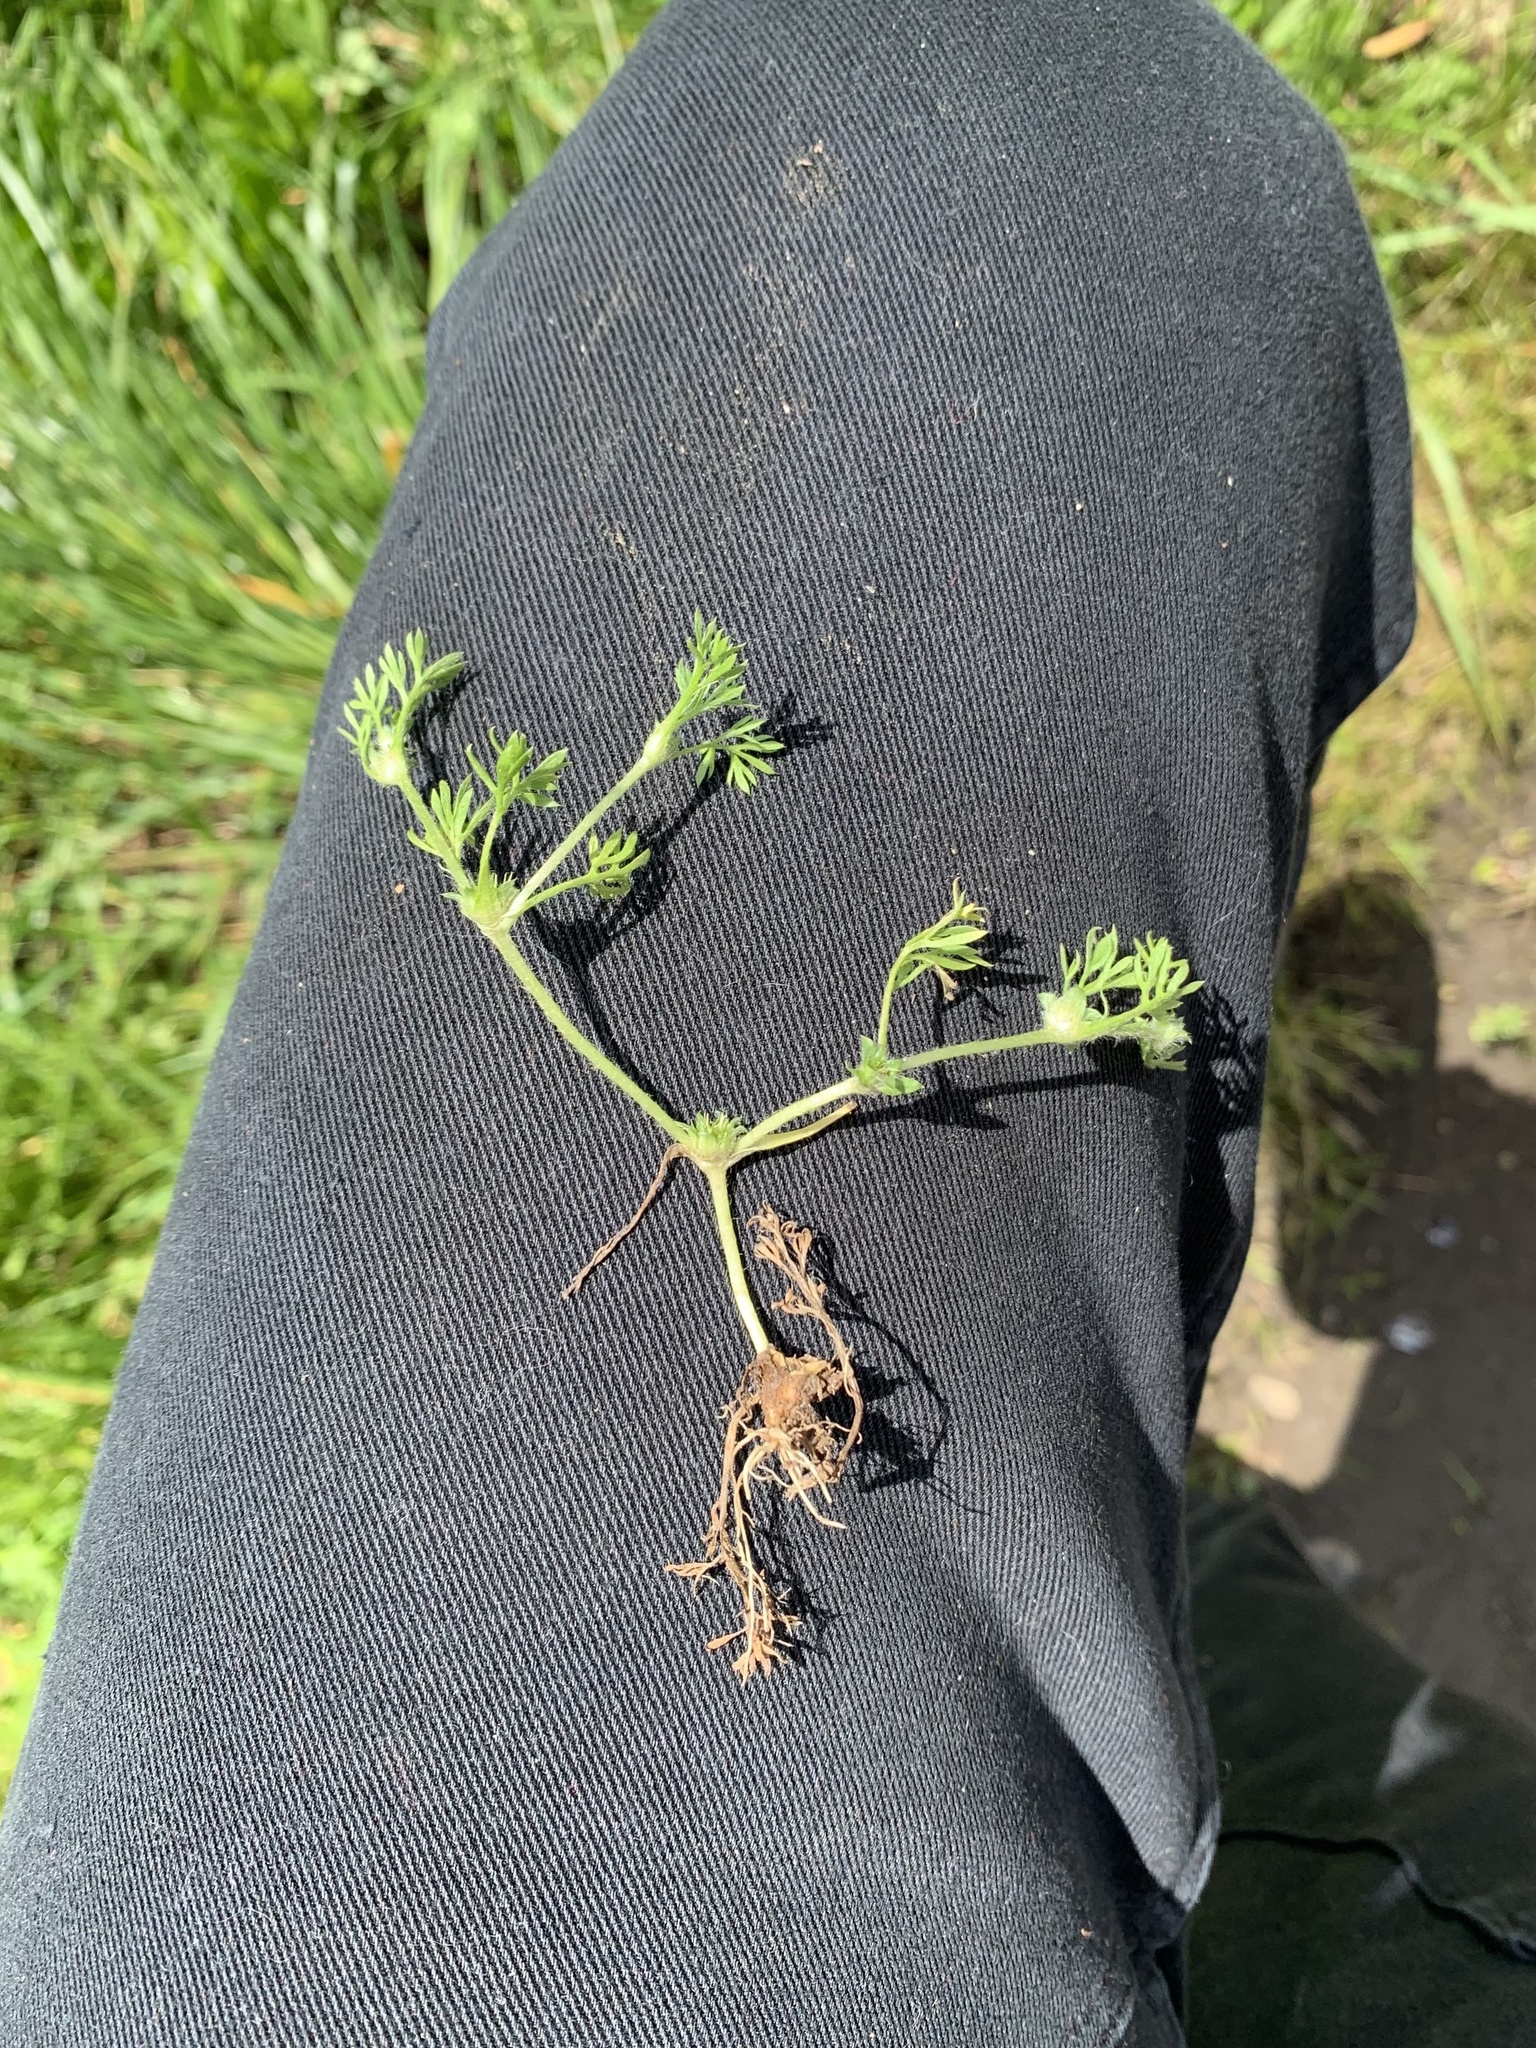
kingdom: Plantae
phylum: Tracheophyta
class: Magnoliopsida
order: Asterales
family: Asteraceae
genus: Soliva
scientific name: Soliva sessilis
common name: Field burrweed
